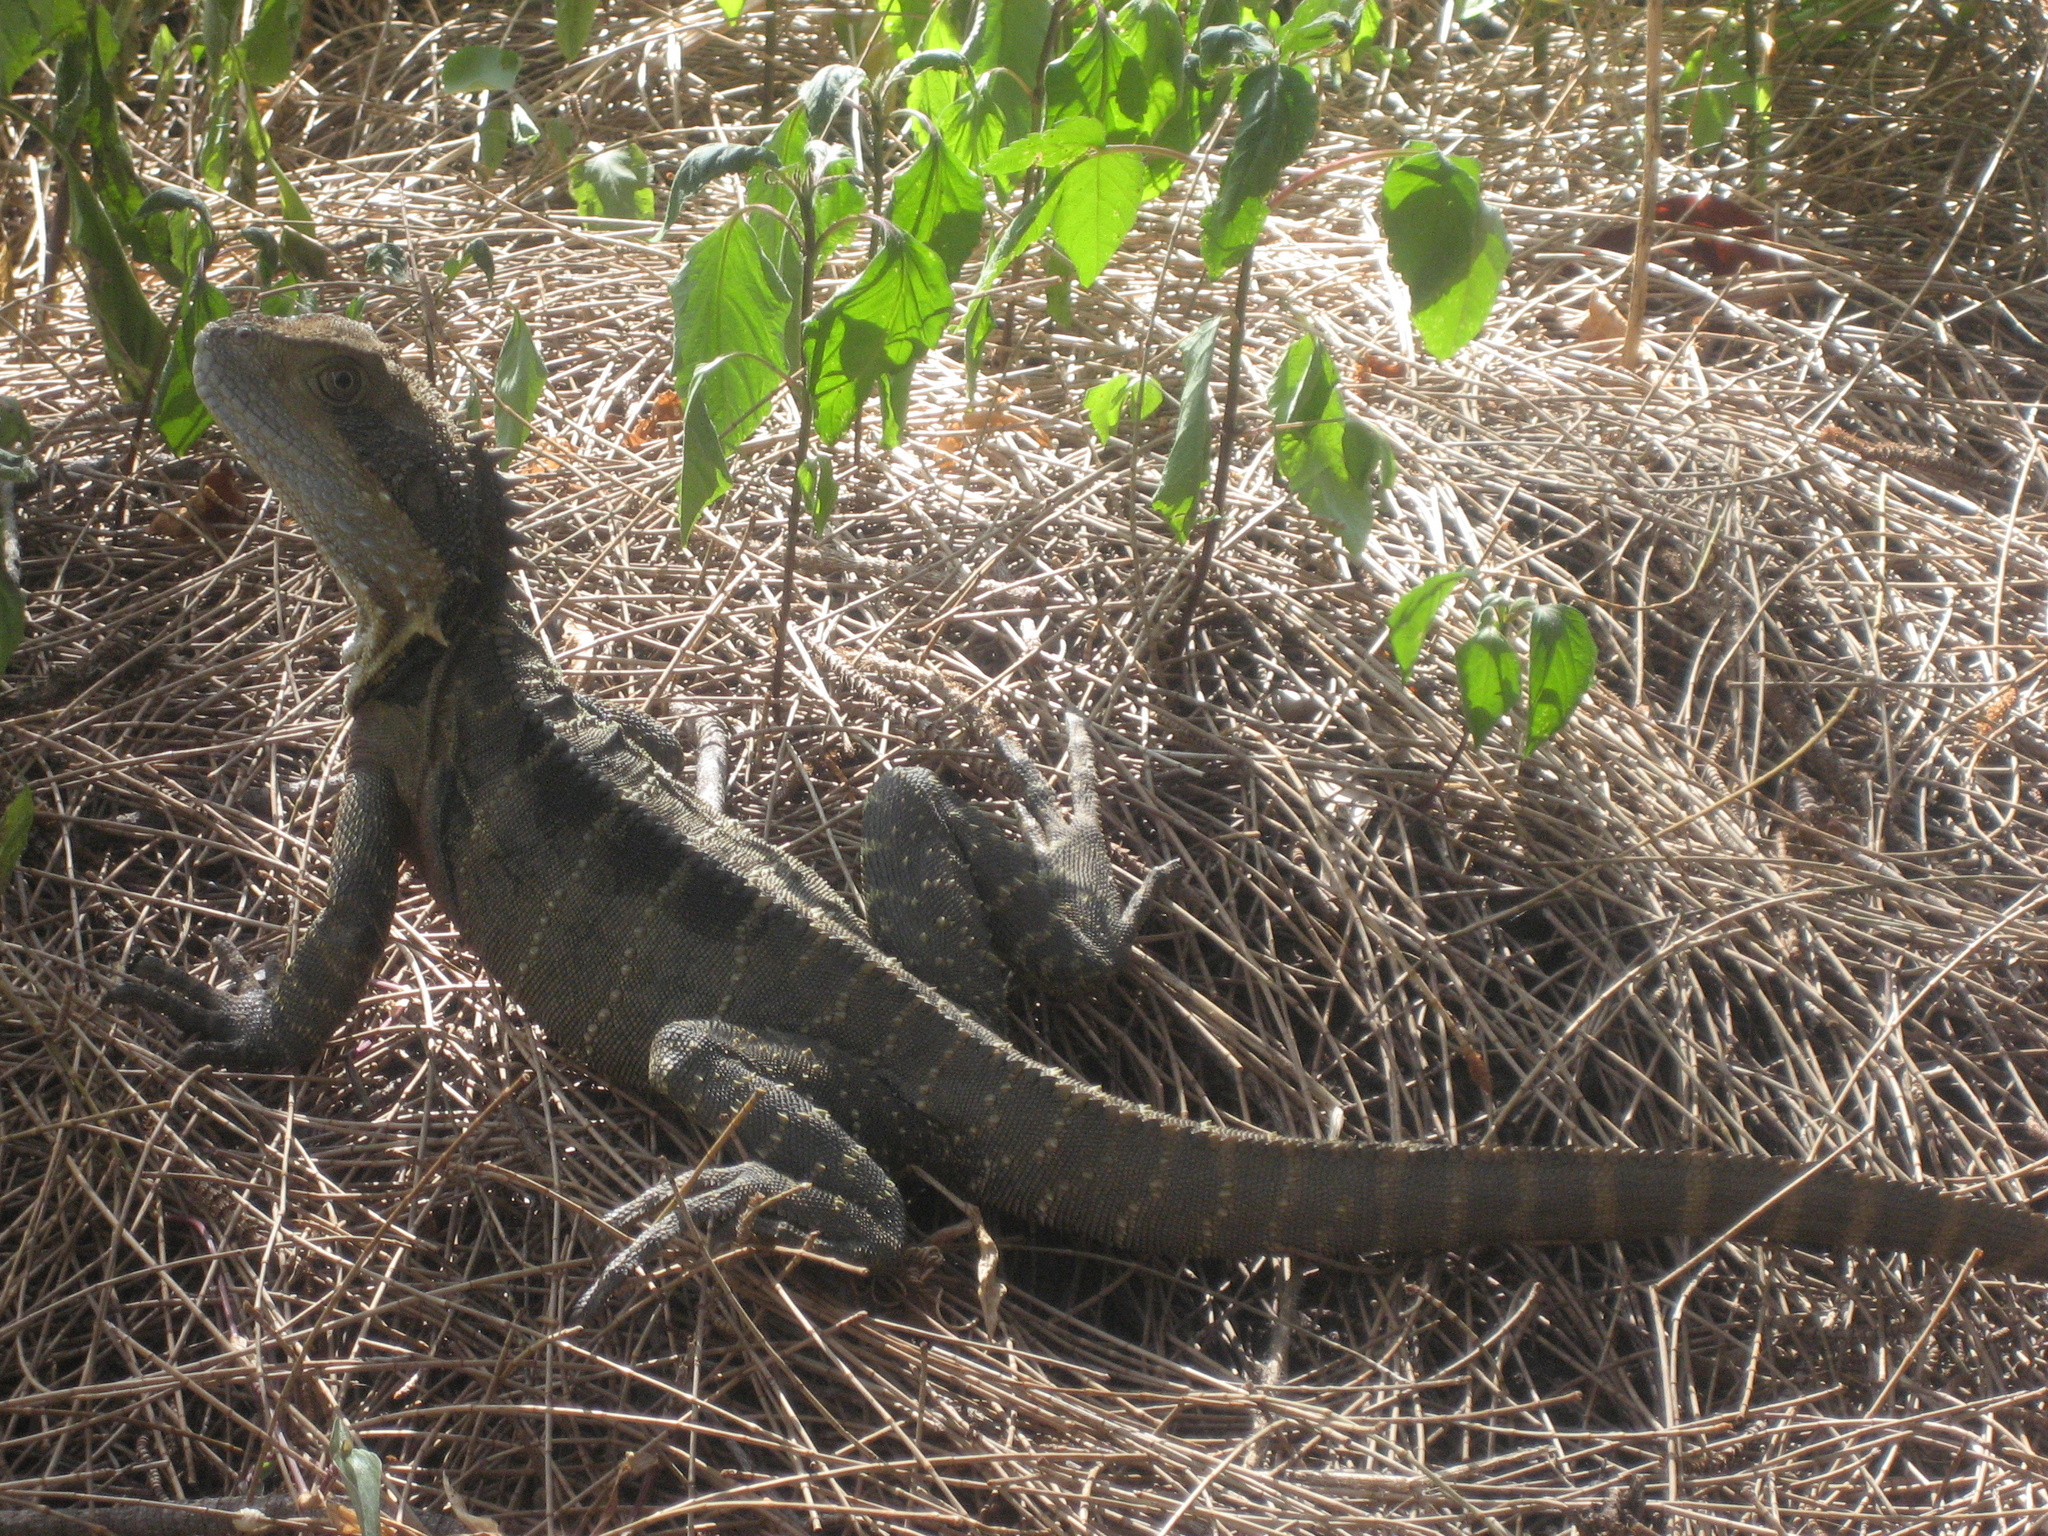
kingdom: Animalia
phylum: Chordata
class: Squamata
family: Agamidae
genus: Intellagama
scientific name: Intellagama lesueurii
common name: Eastern water dragon
